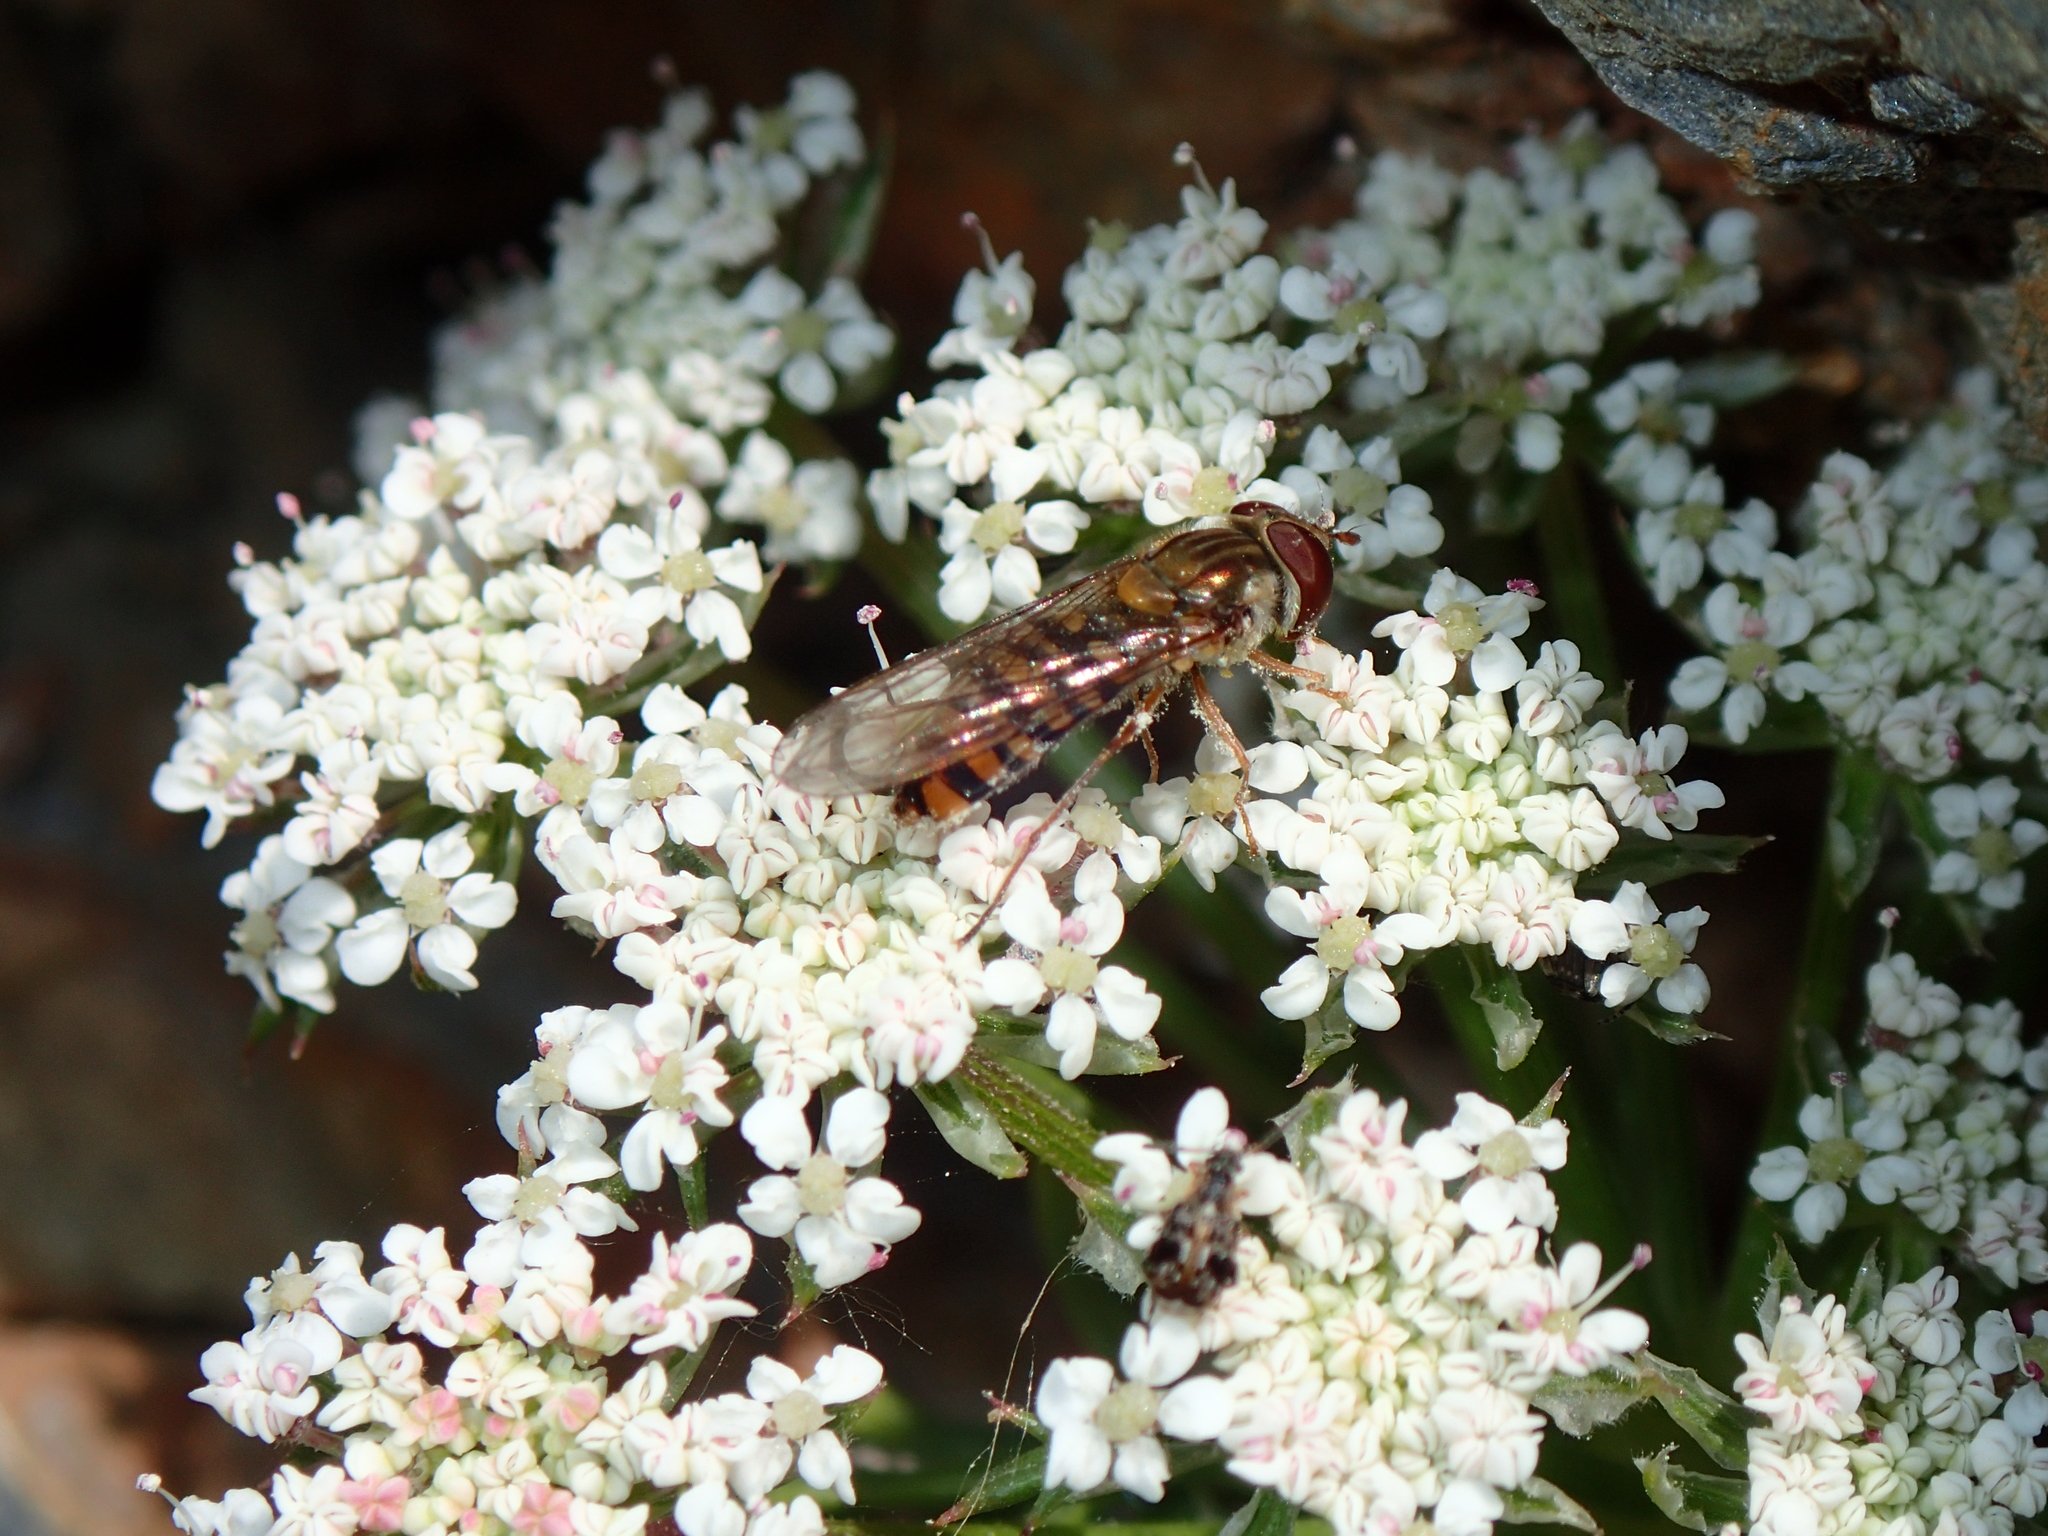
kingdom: Animalia
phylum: Arthropoda
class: Insecta
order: Diptera
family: Syrphidae
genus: Episyrphus
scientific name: Episyrphus balteatus
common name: Marmalade hoverfly
